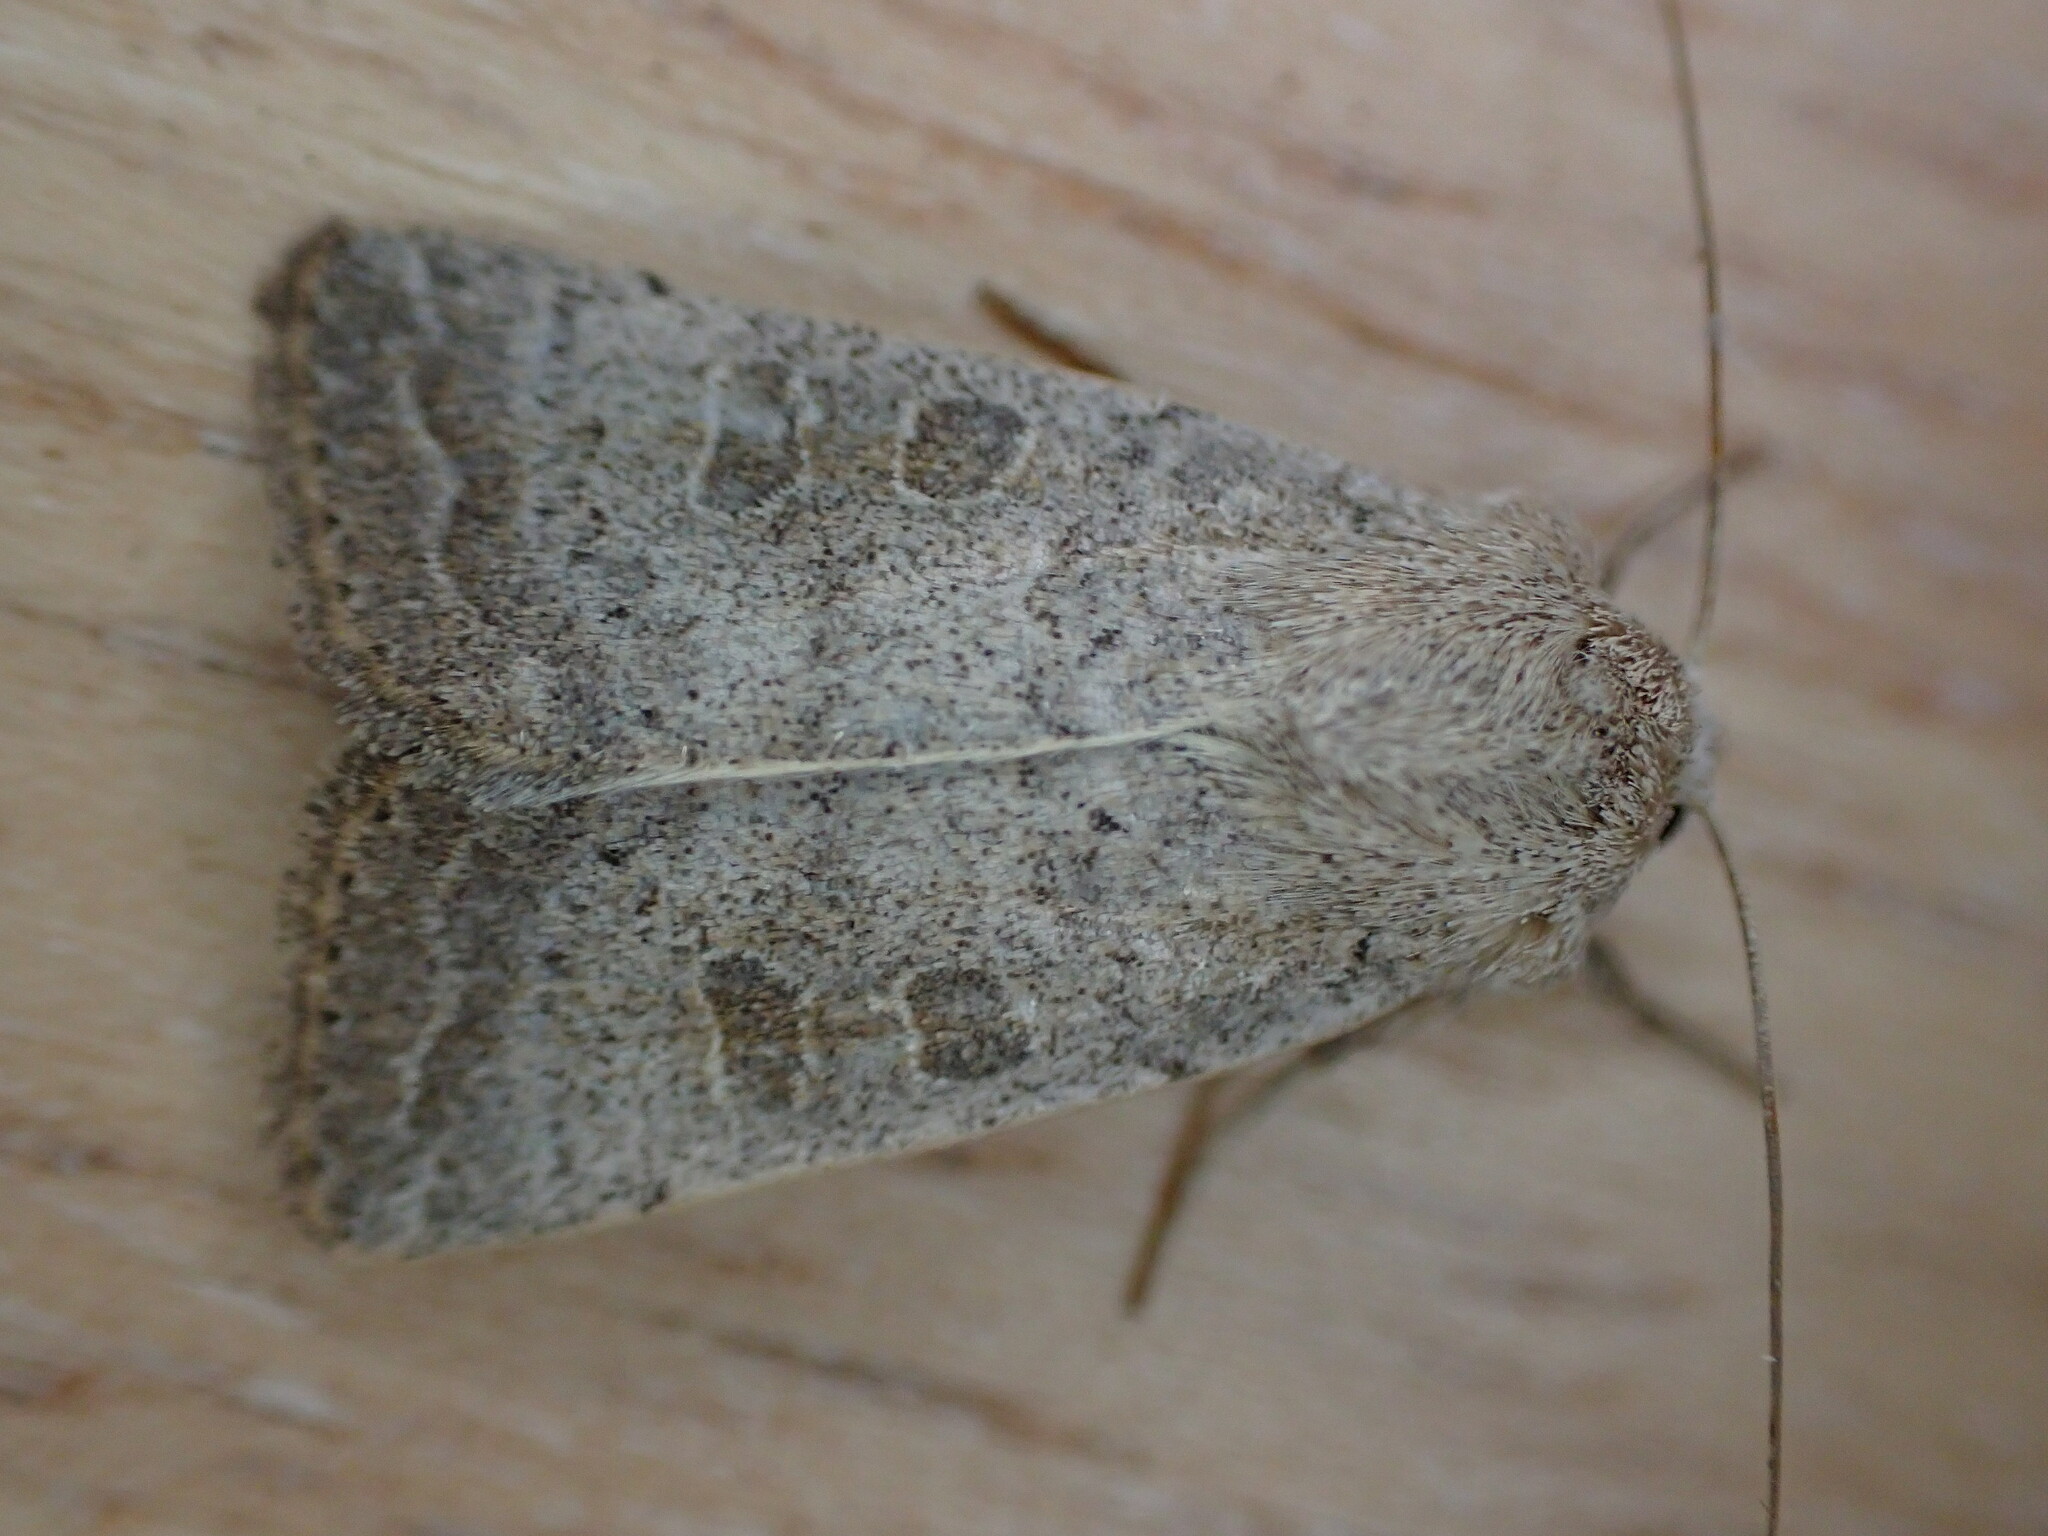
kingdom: Animalia
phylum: Arthropoda
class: Insecta
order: Lepidoptera
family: Noctuidae
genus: Hoplodrina
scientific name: Hoplodrina ambigua
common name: Vine's rustic
